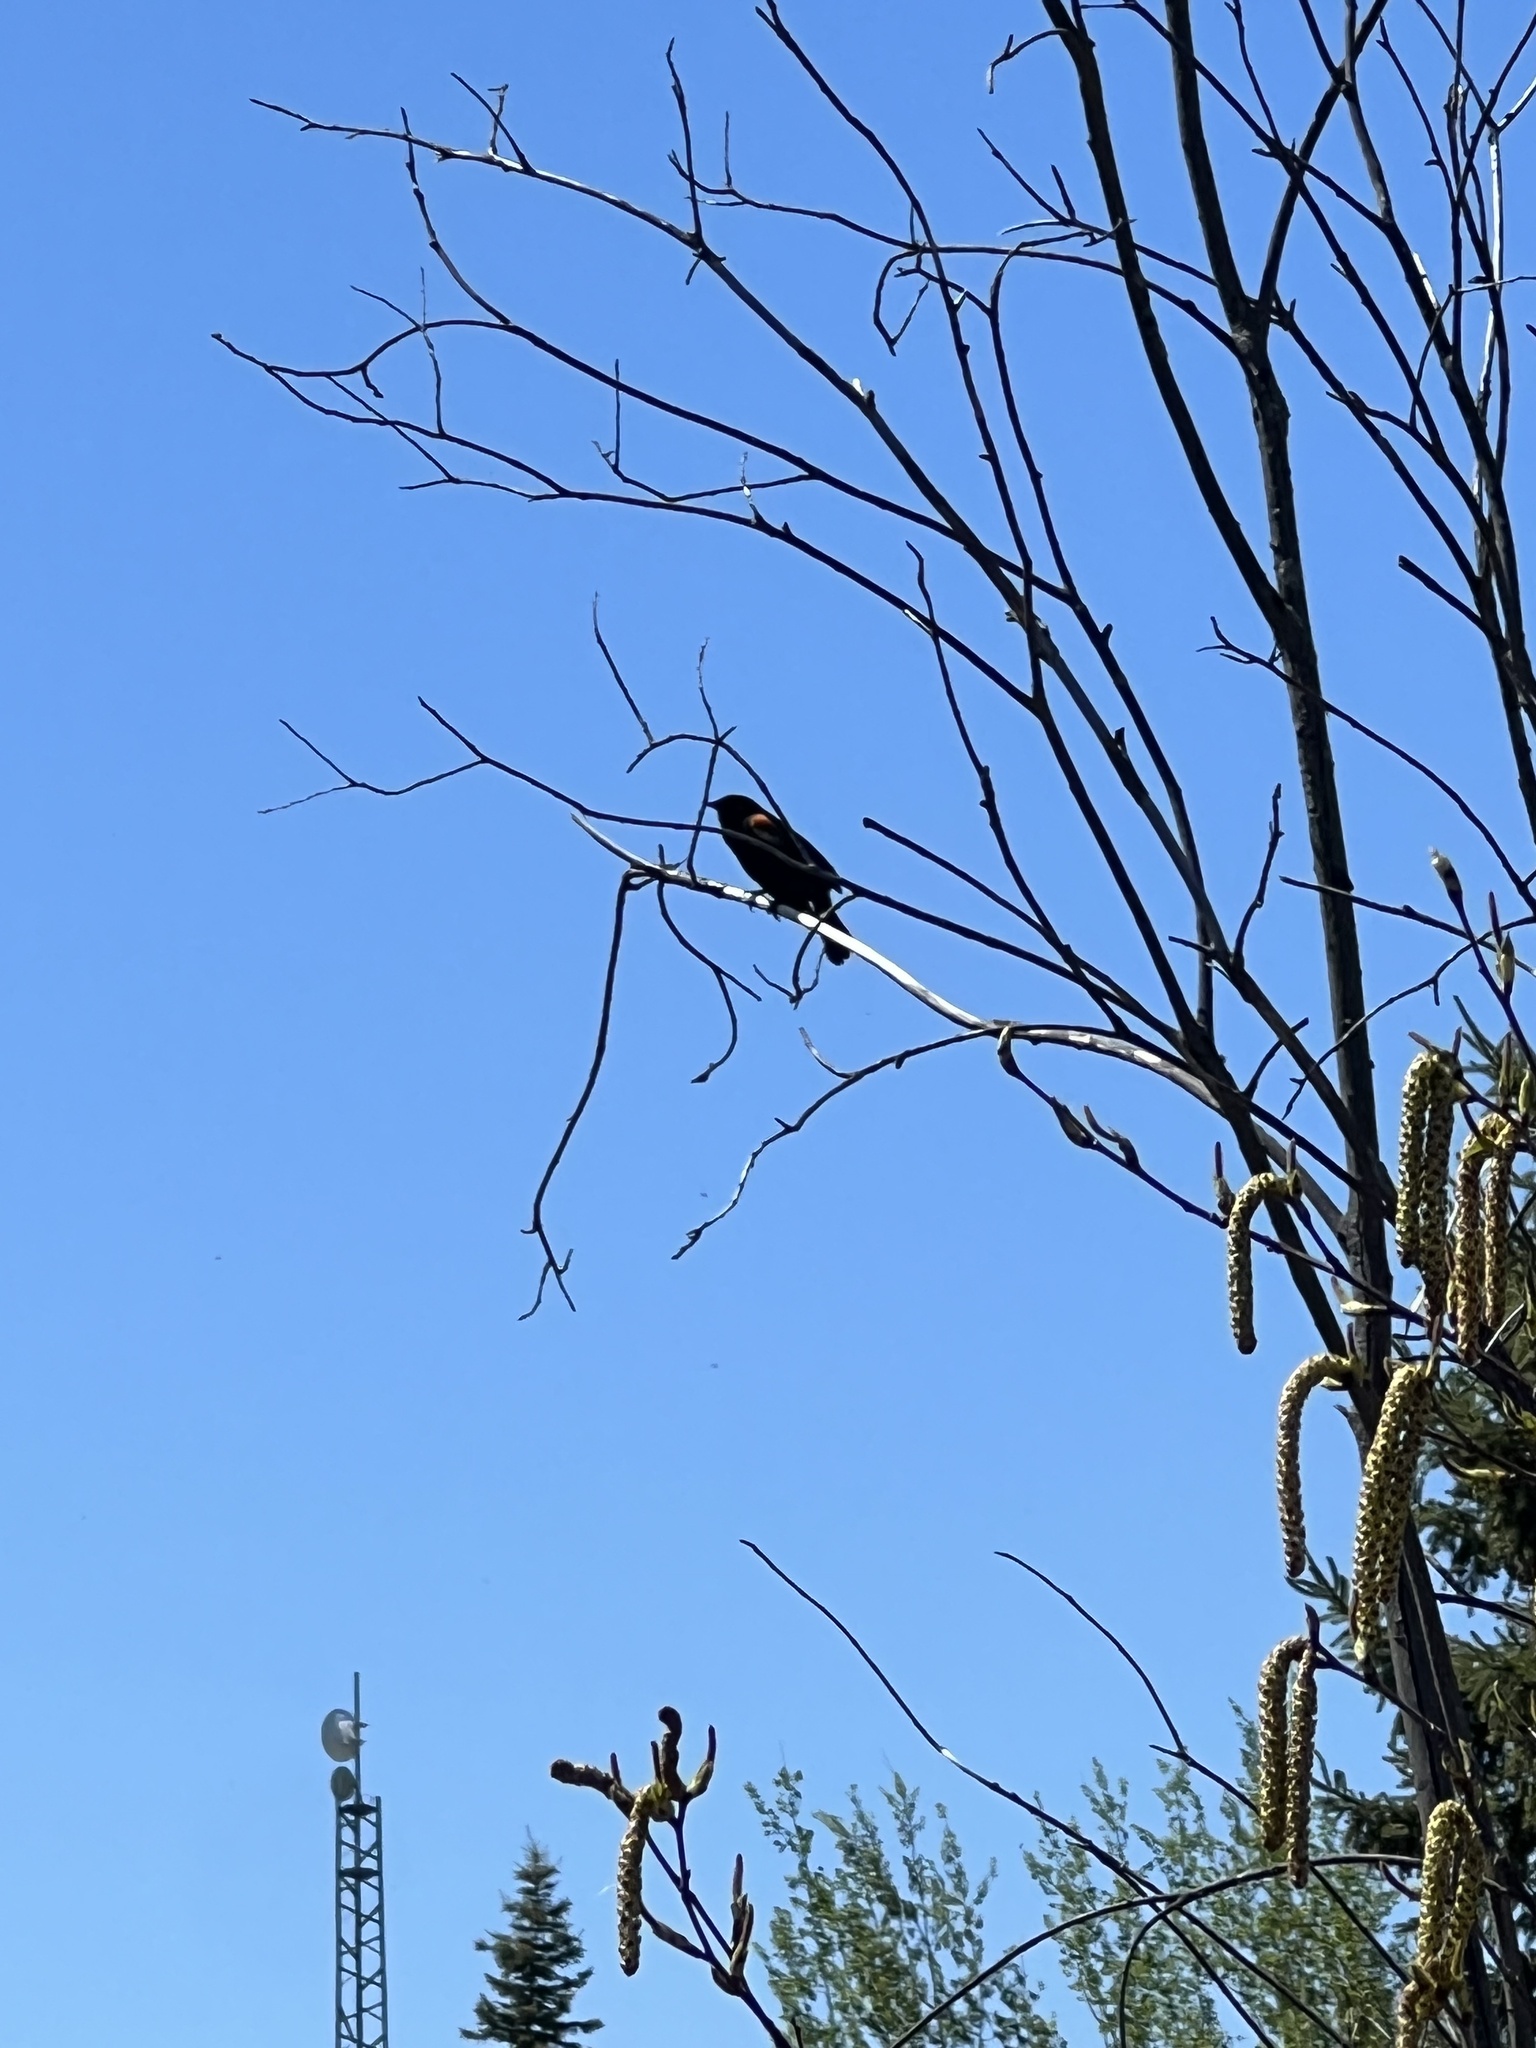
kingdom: Animalia
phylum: Chordata
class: Aves
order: Passeriformes
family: Icteridae
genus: Agelaius
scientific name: Agelaius phoeniceus
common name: Red-winged blackbird
